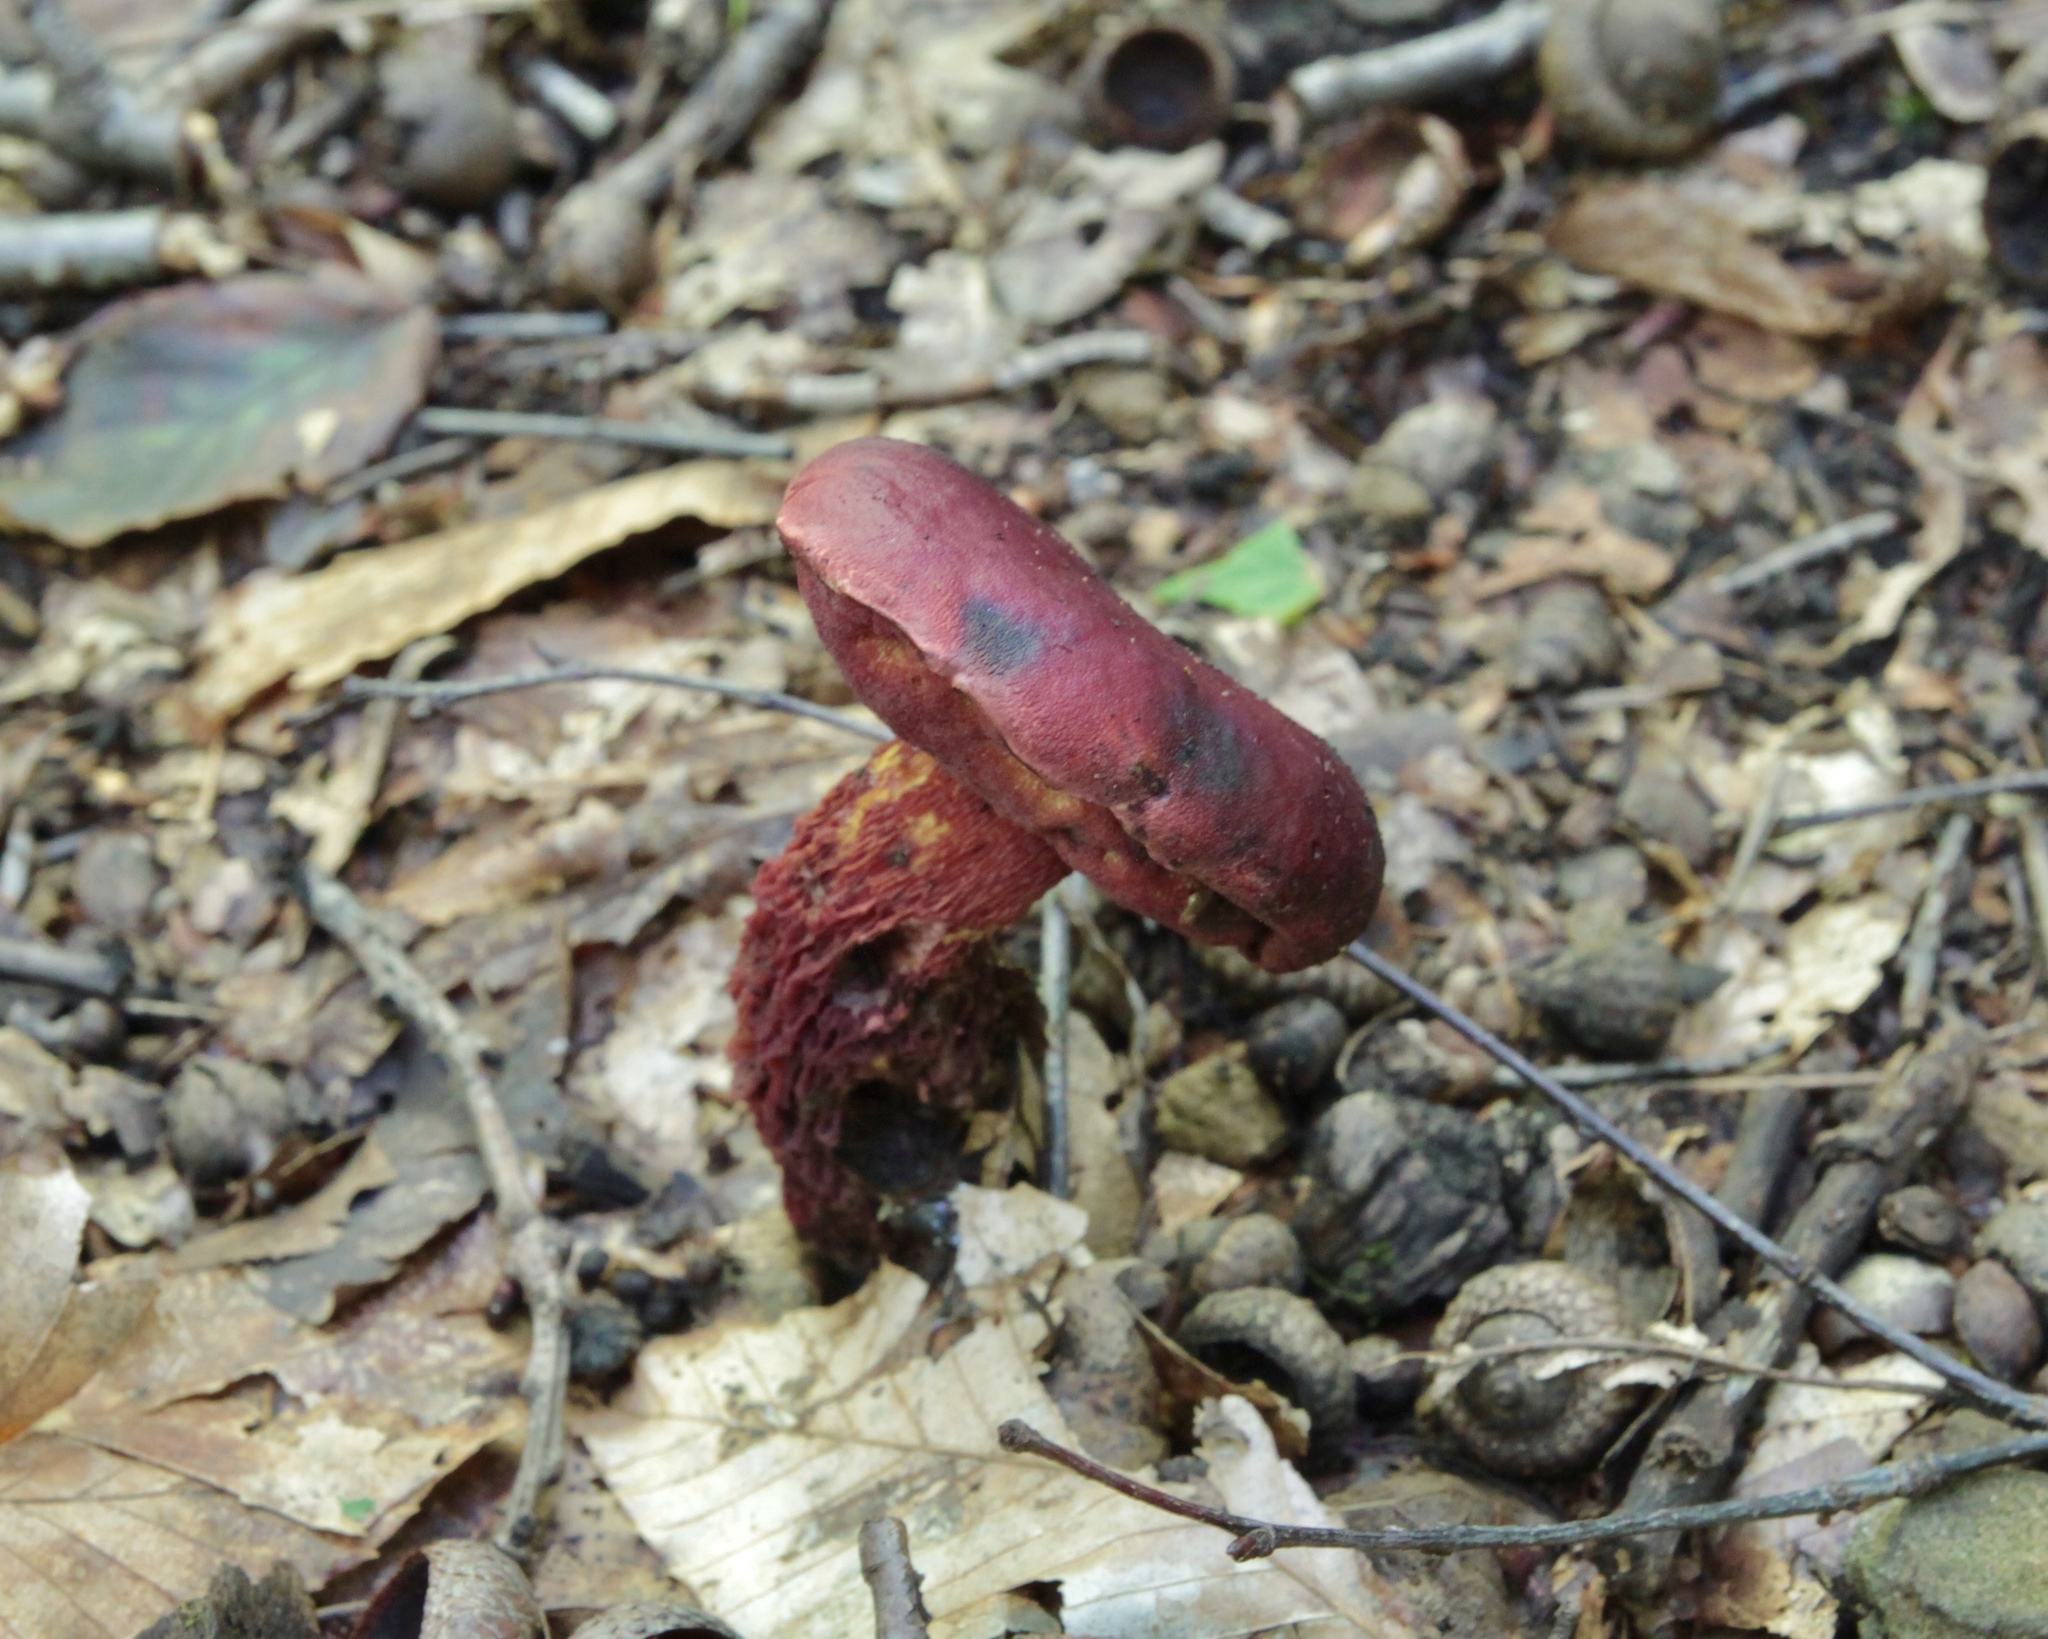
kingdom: Fungi
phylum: Basidiomycota
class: Agaricomycetes
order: Boletales
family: Boletaceae
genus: Butyriboletus
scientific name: Butyriboletus frostii
